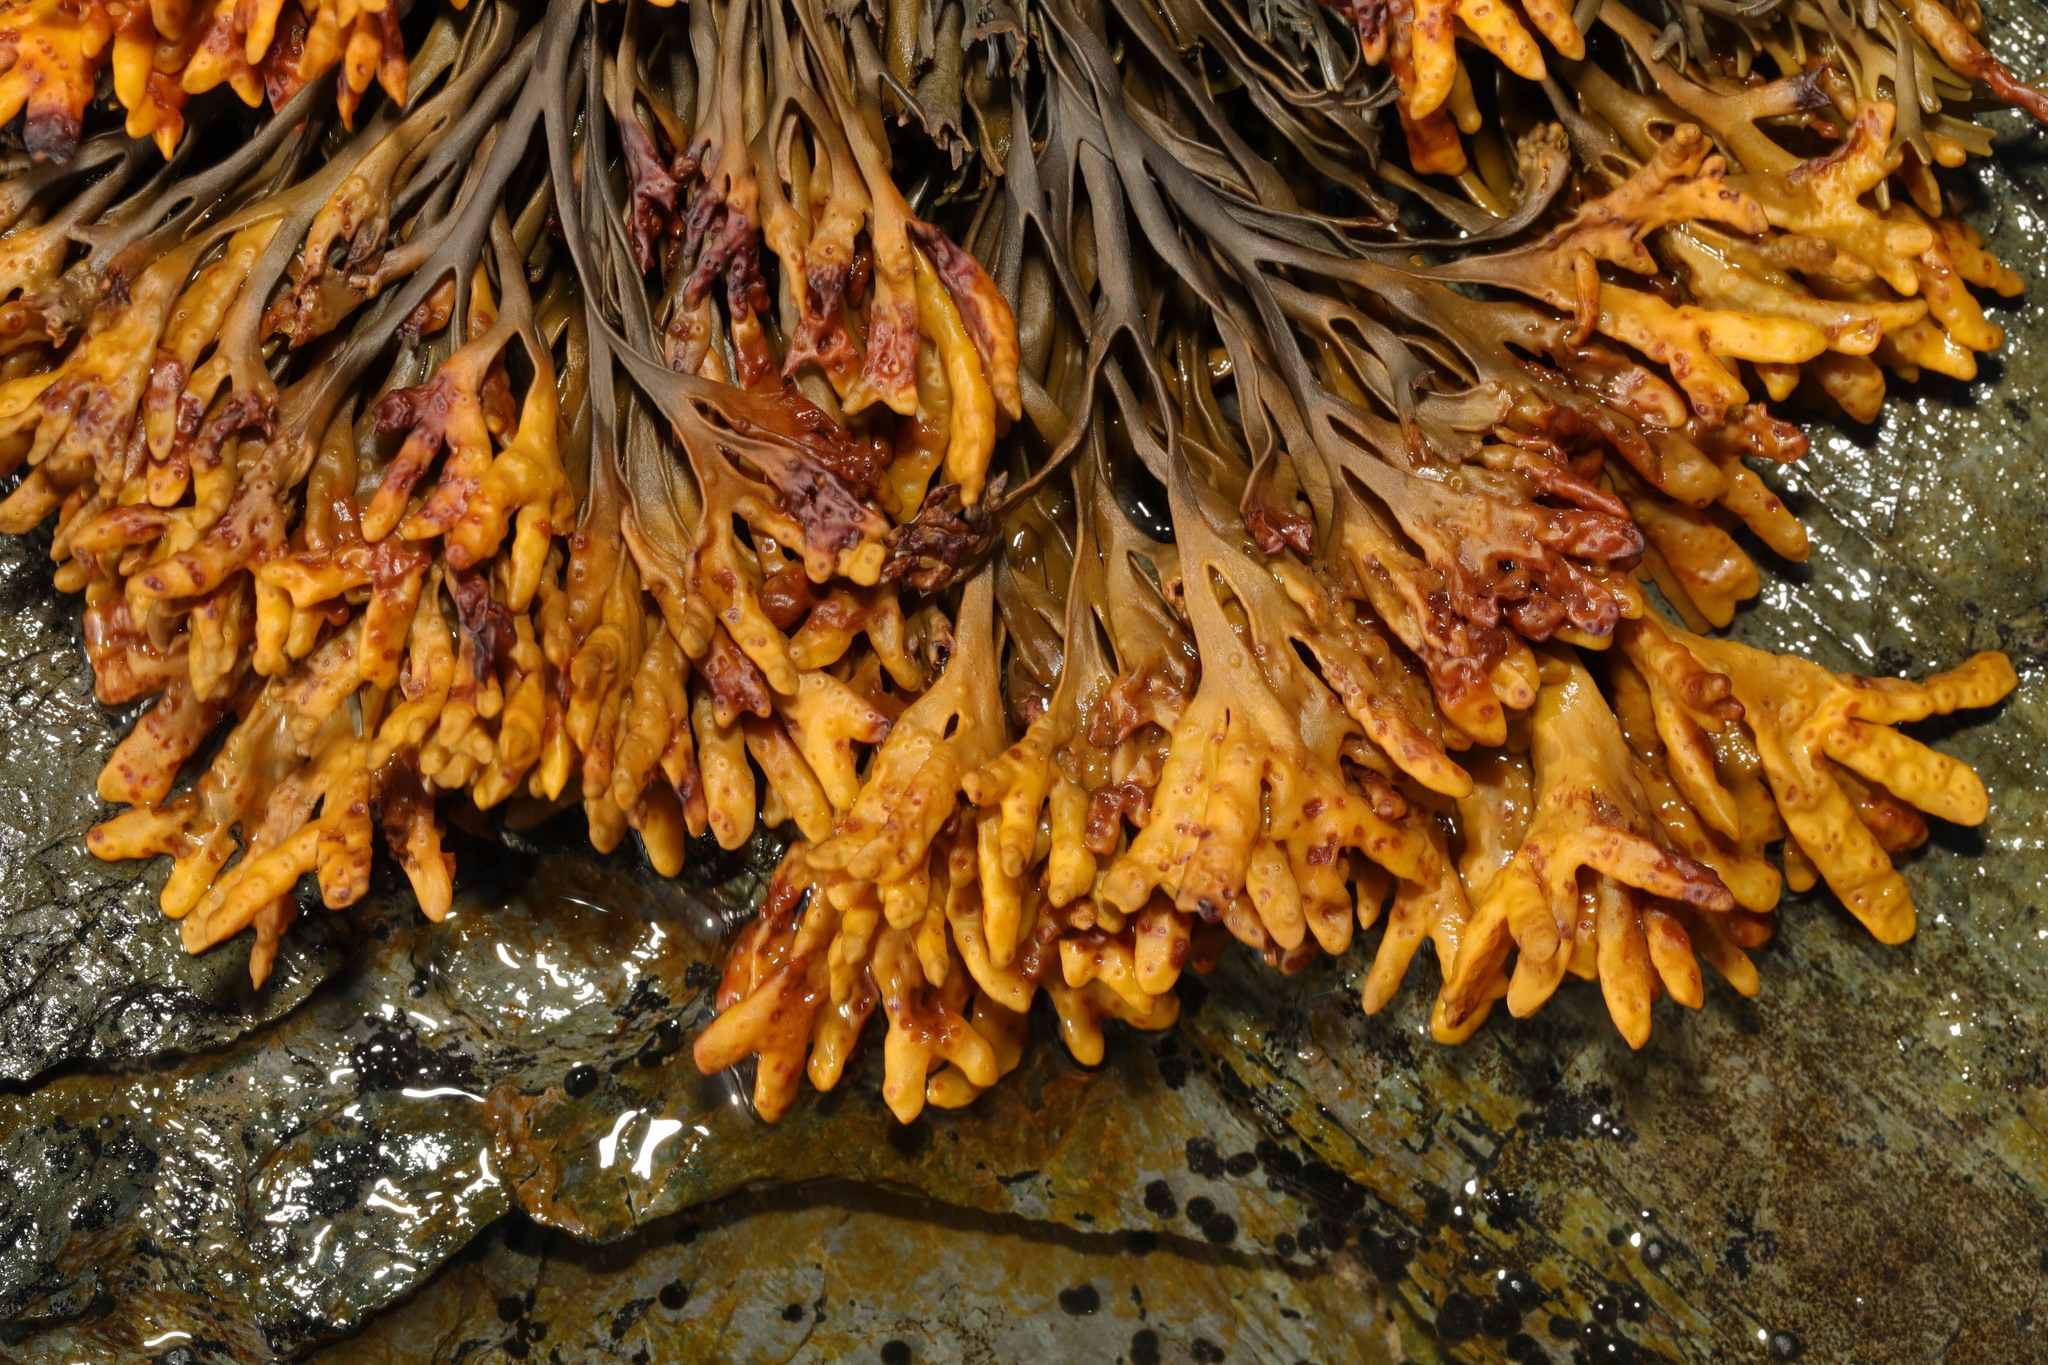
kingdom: Chromista
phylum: Ochrophyta
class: Phaeophyceae
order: Fucales
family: Fucaceae
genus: Pelvetia
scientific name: Pelvetia canaliculata
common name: Channelled wrack
